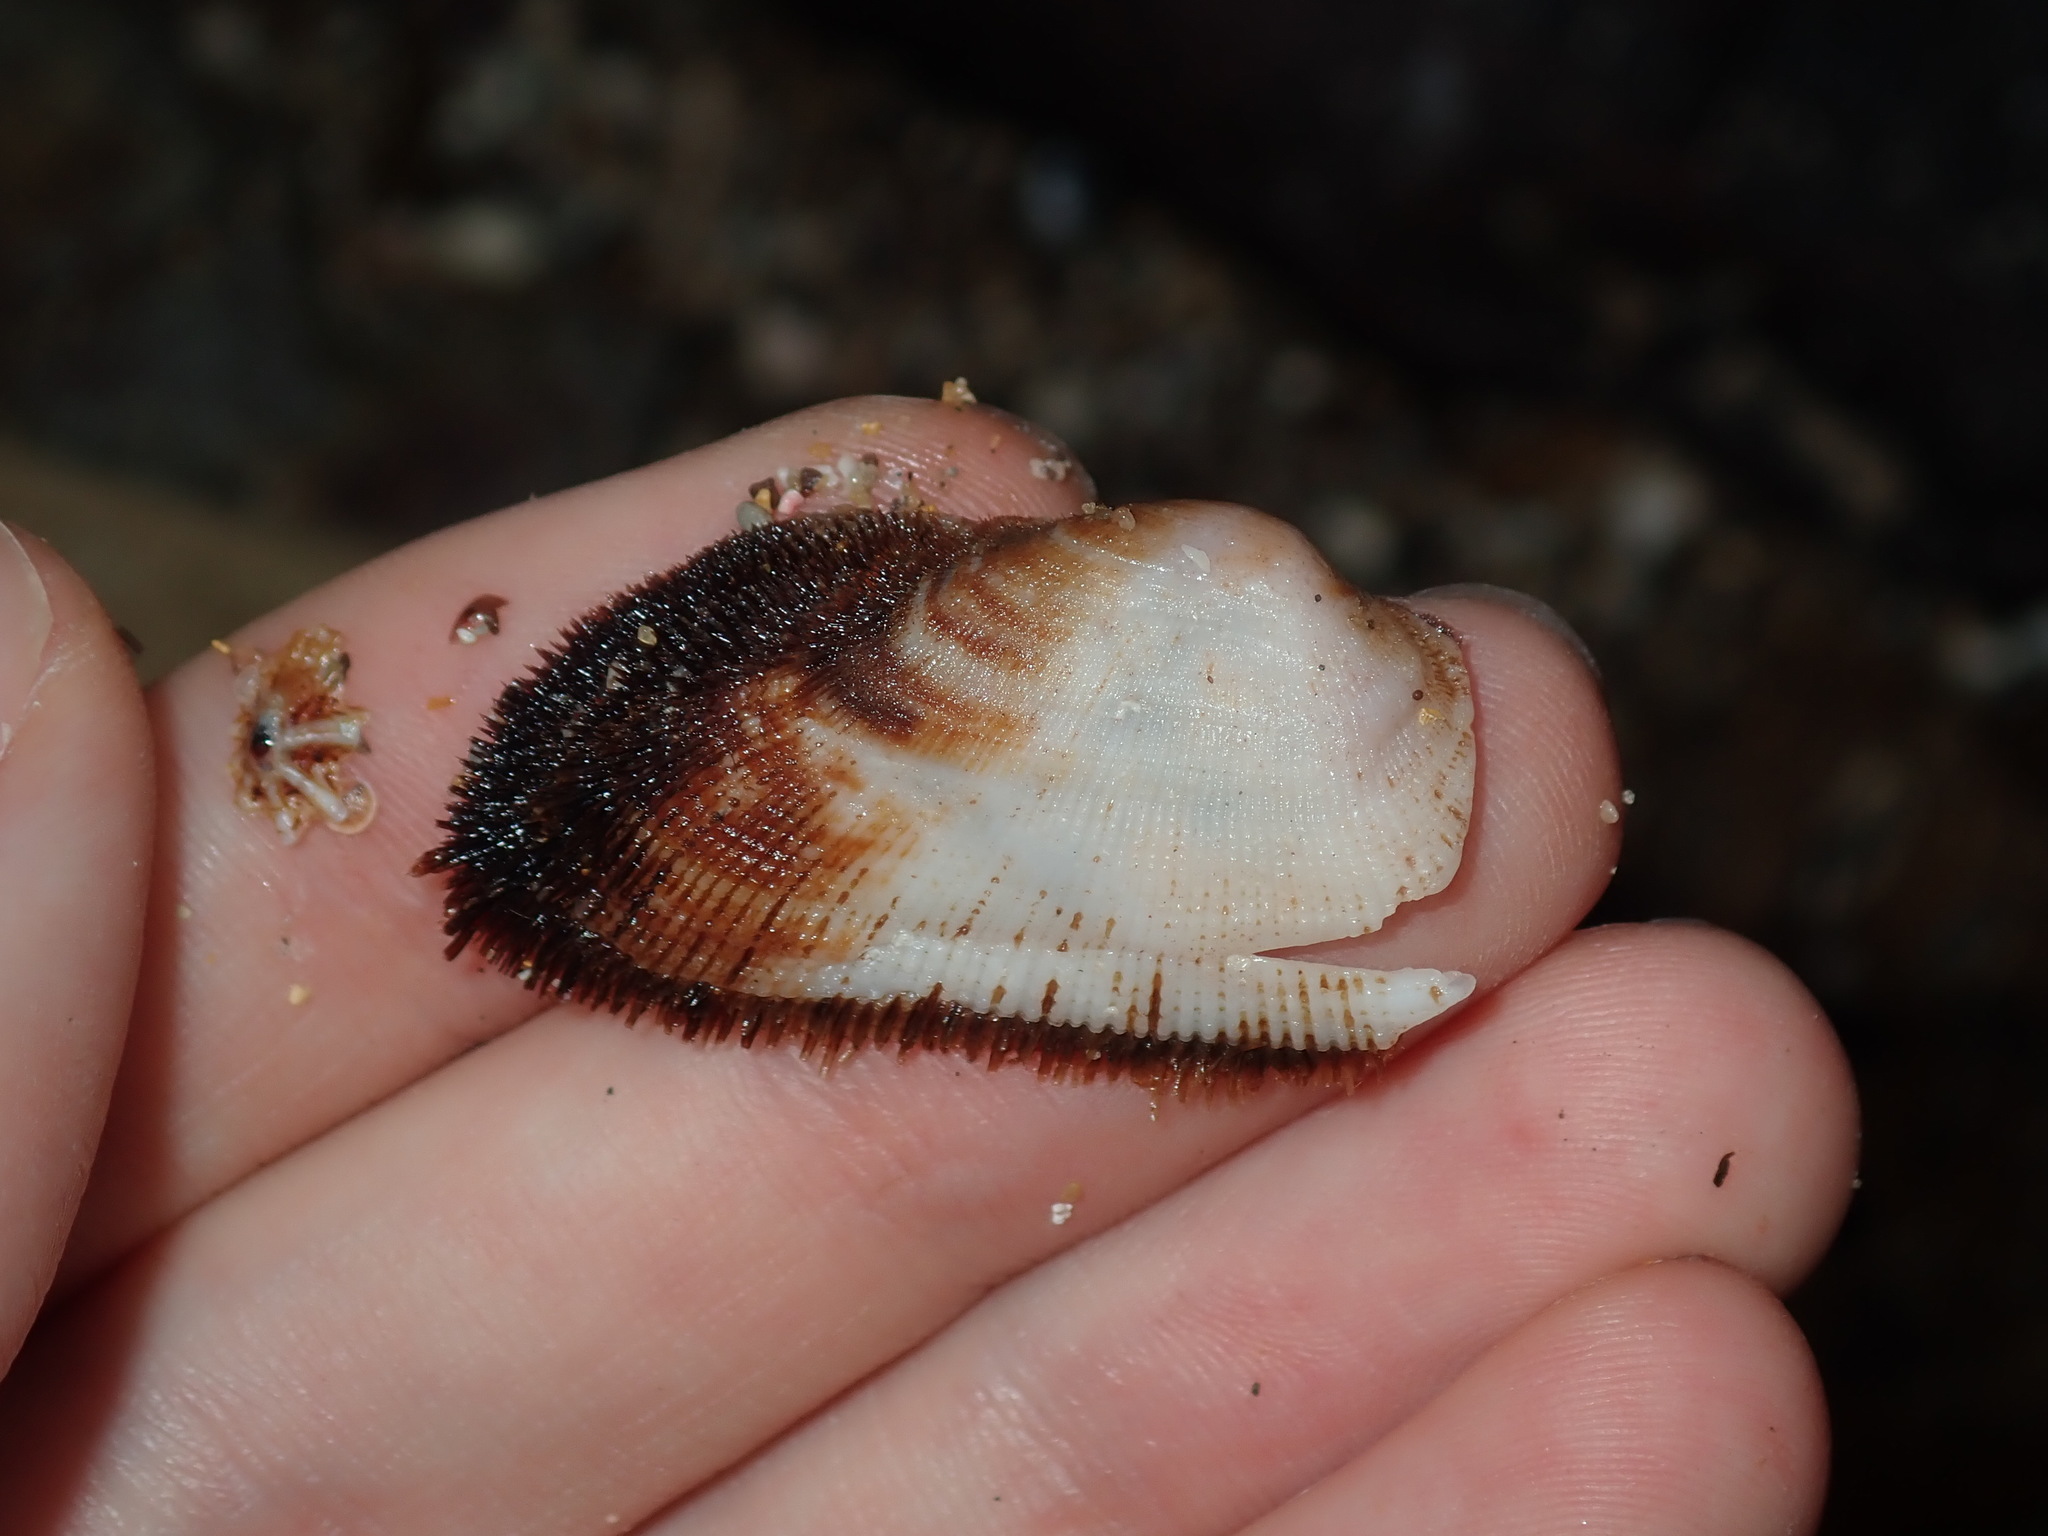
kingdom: Animalia
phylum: Mollusca
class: Bivalvia
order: Arcida
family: Arcidae
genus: Barbatia
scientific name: Barbatia pistachia
